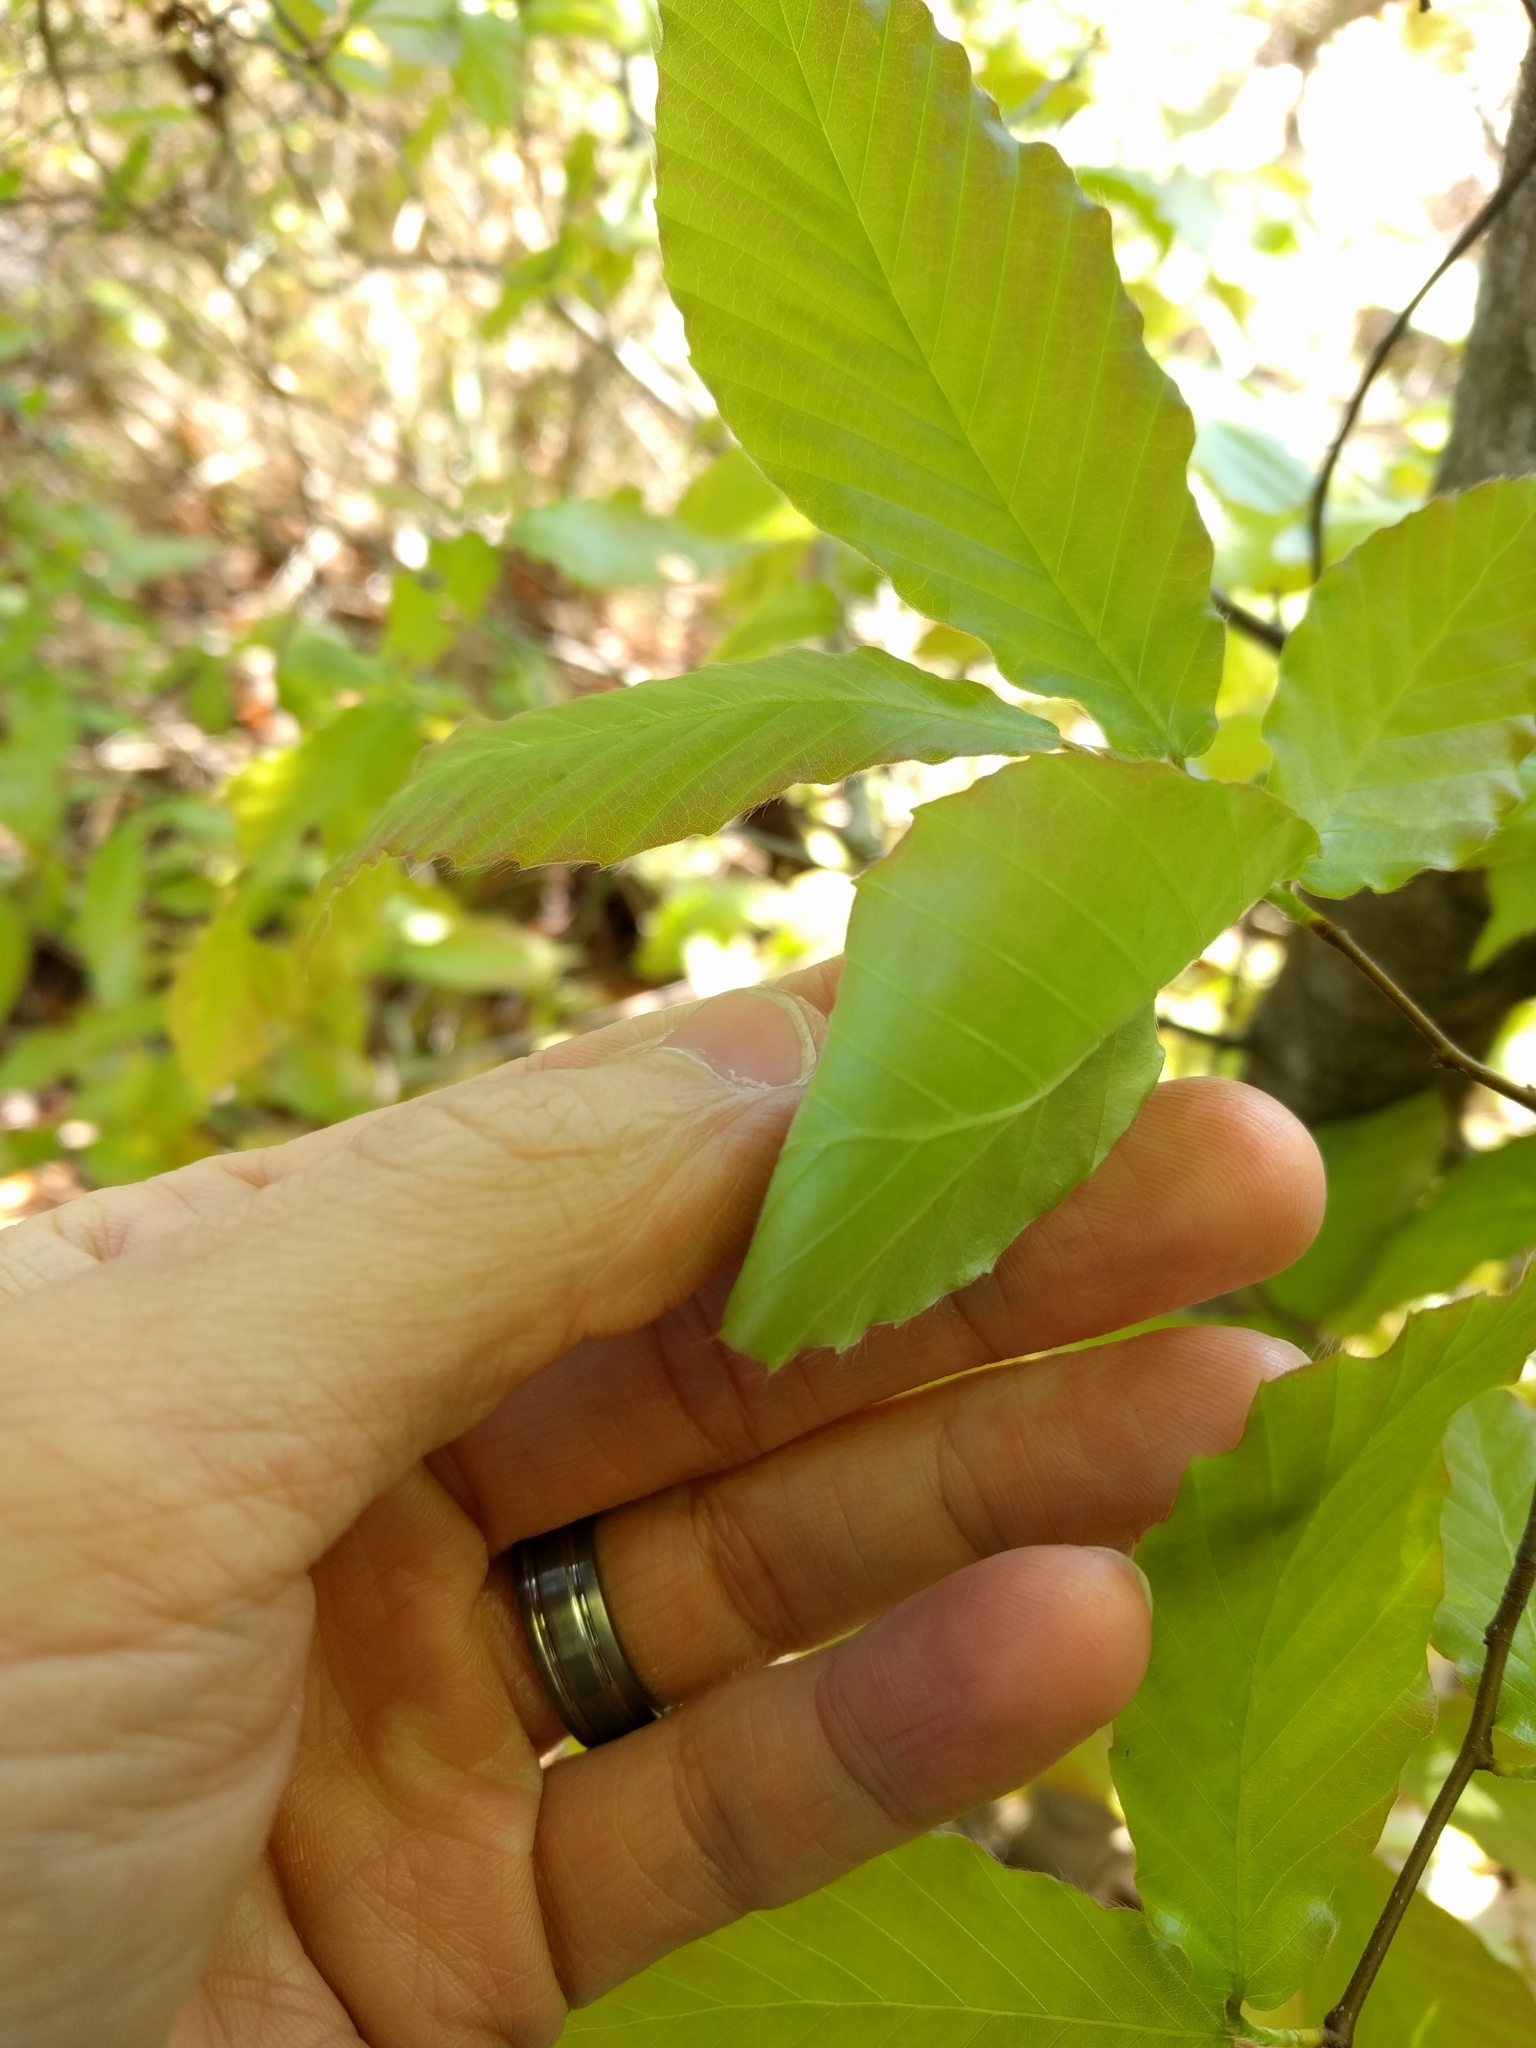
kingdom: Plantae
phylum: Tracheophyta
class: Magnoliopsida
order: Fagales
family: Fagaceae
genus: Fagus
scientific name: Fagus grandifolia
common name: American beech
